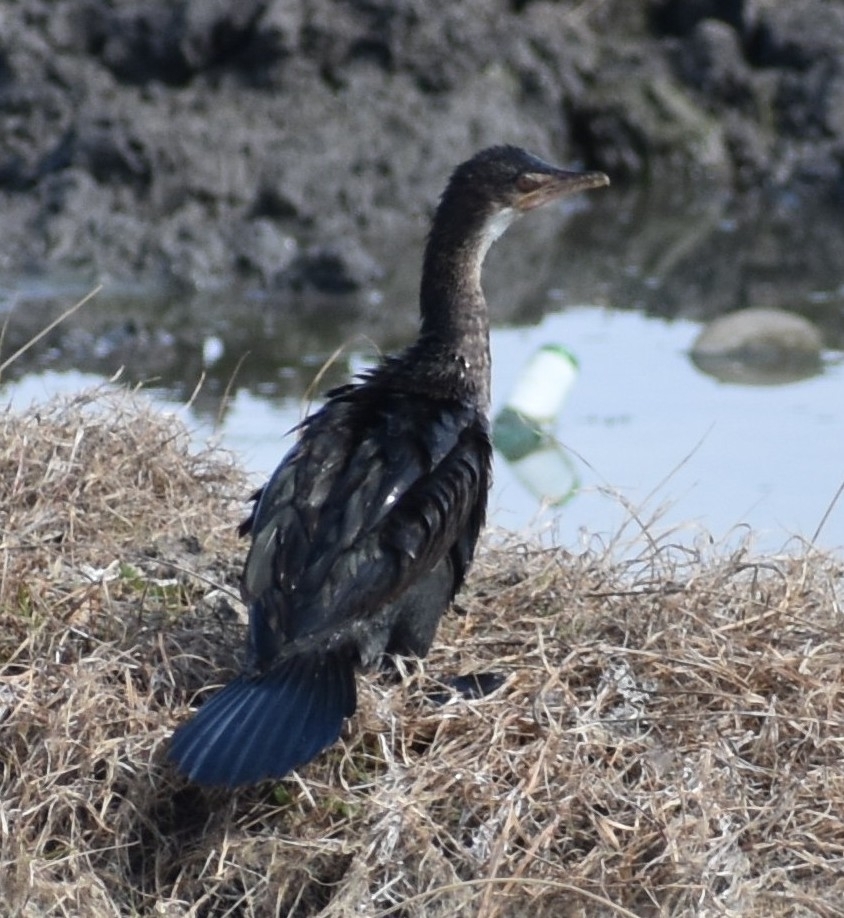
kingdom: Animalia
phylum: Chordata
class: Aves
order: Suliformes
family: Phalacrocoracidae
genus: Microcarbo
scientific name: Microcarbo africanus
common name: Long-tailed cormorant
